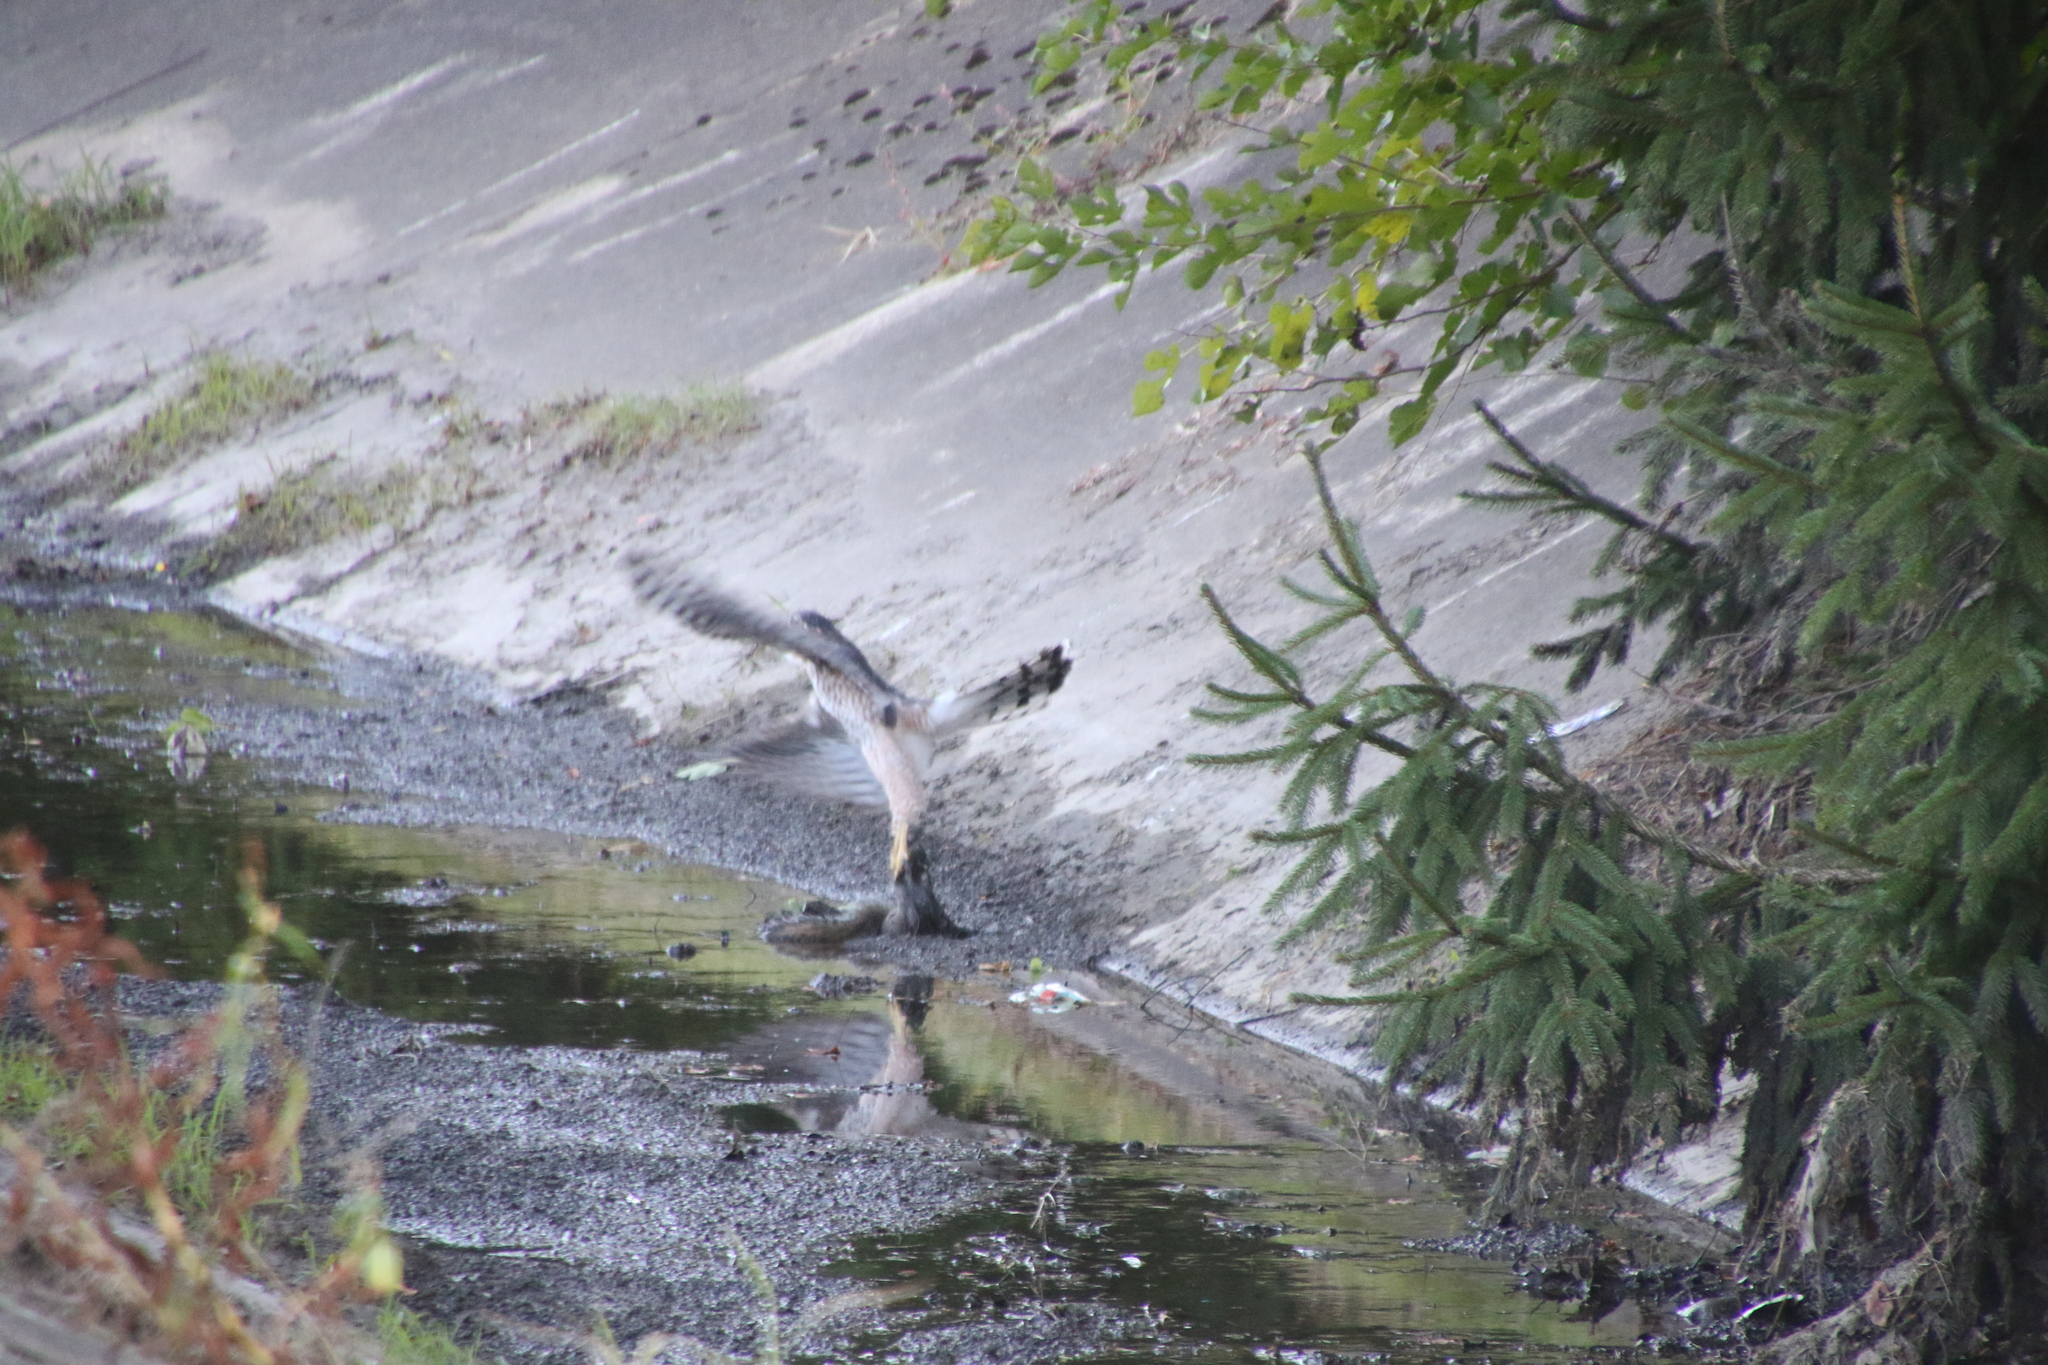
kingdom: Animalia
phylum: Chordata
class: Aves
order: Accipitriformes
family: Accipitridae
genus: Accipiter
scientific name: Accipiter cooperii
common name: Cooper's hawk
